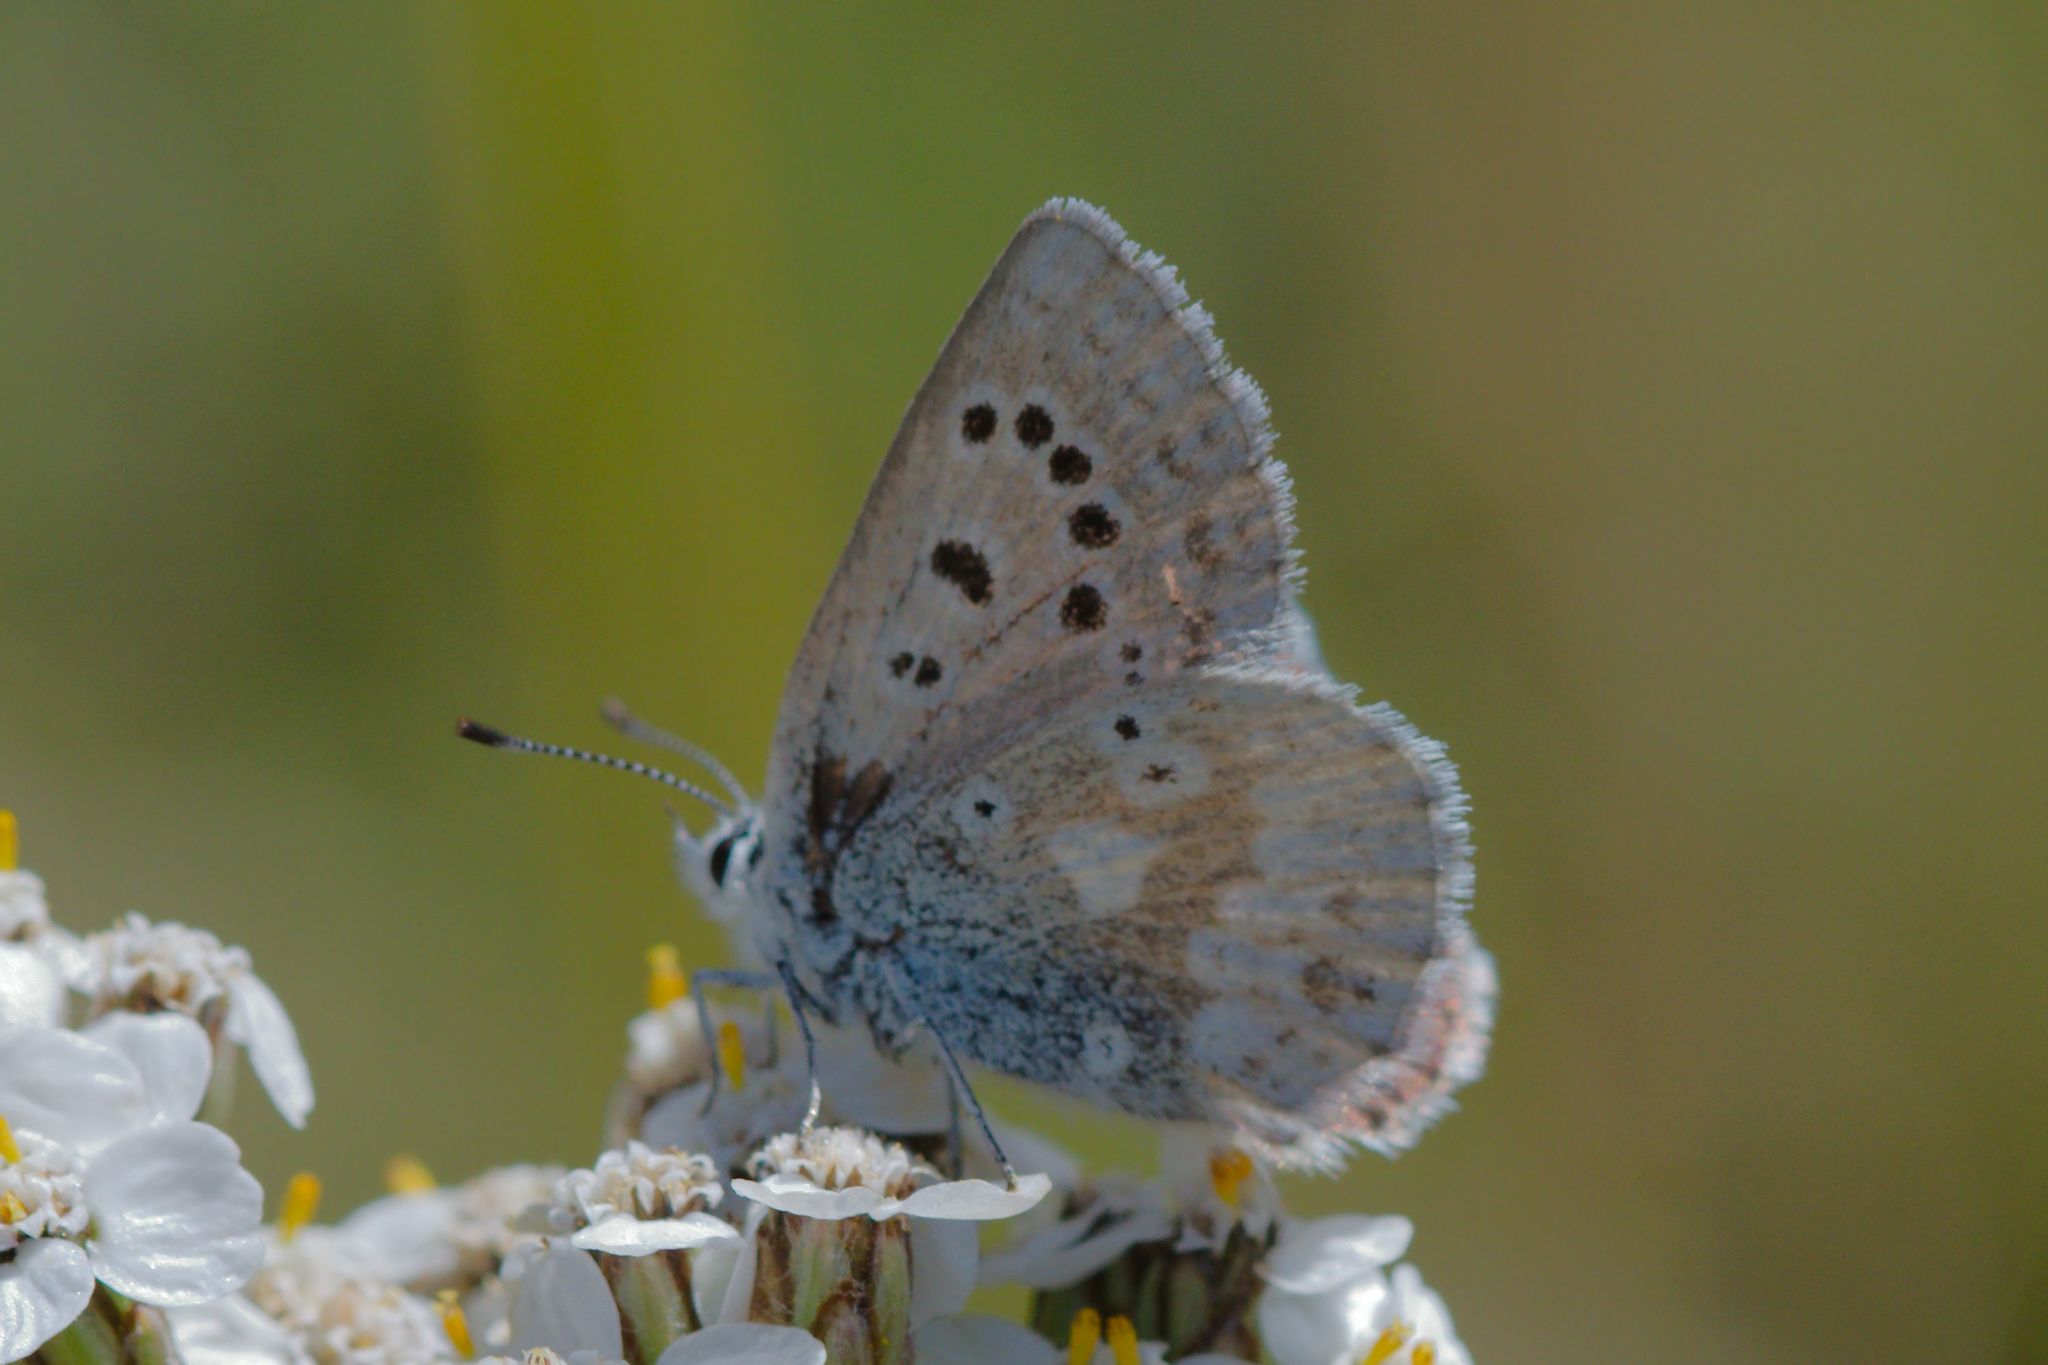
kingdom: Animalia
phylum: Arthropoda
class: Insecta
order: Lepidoptera
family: Lycaenidae
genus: Agriades
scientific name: Agriades glandon
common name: Glandon blue
